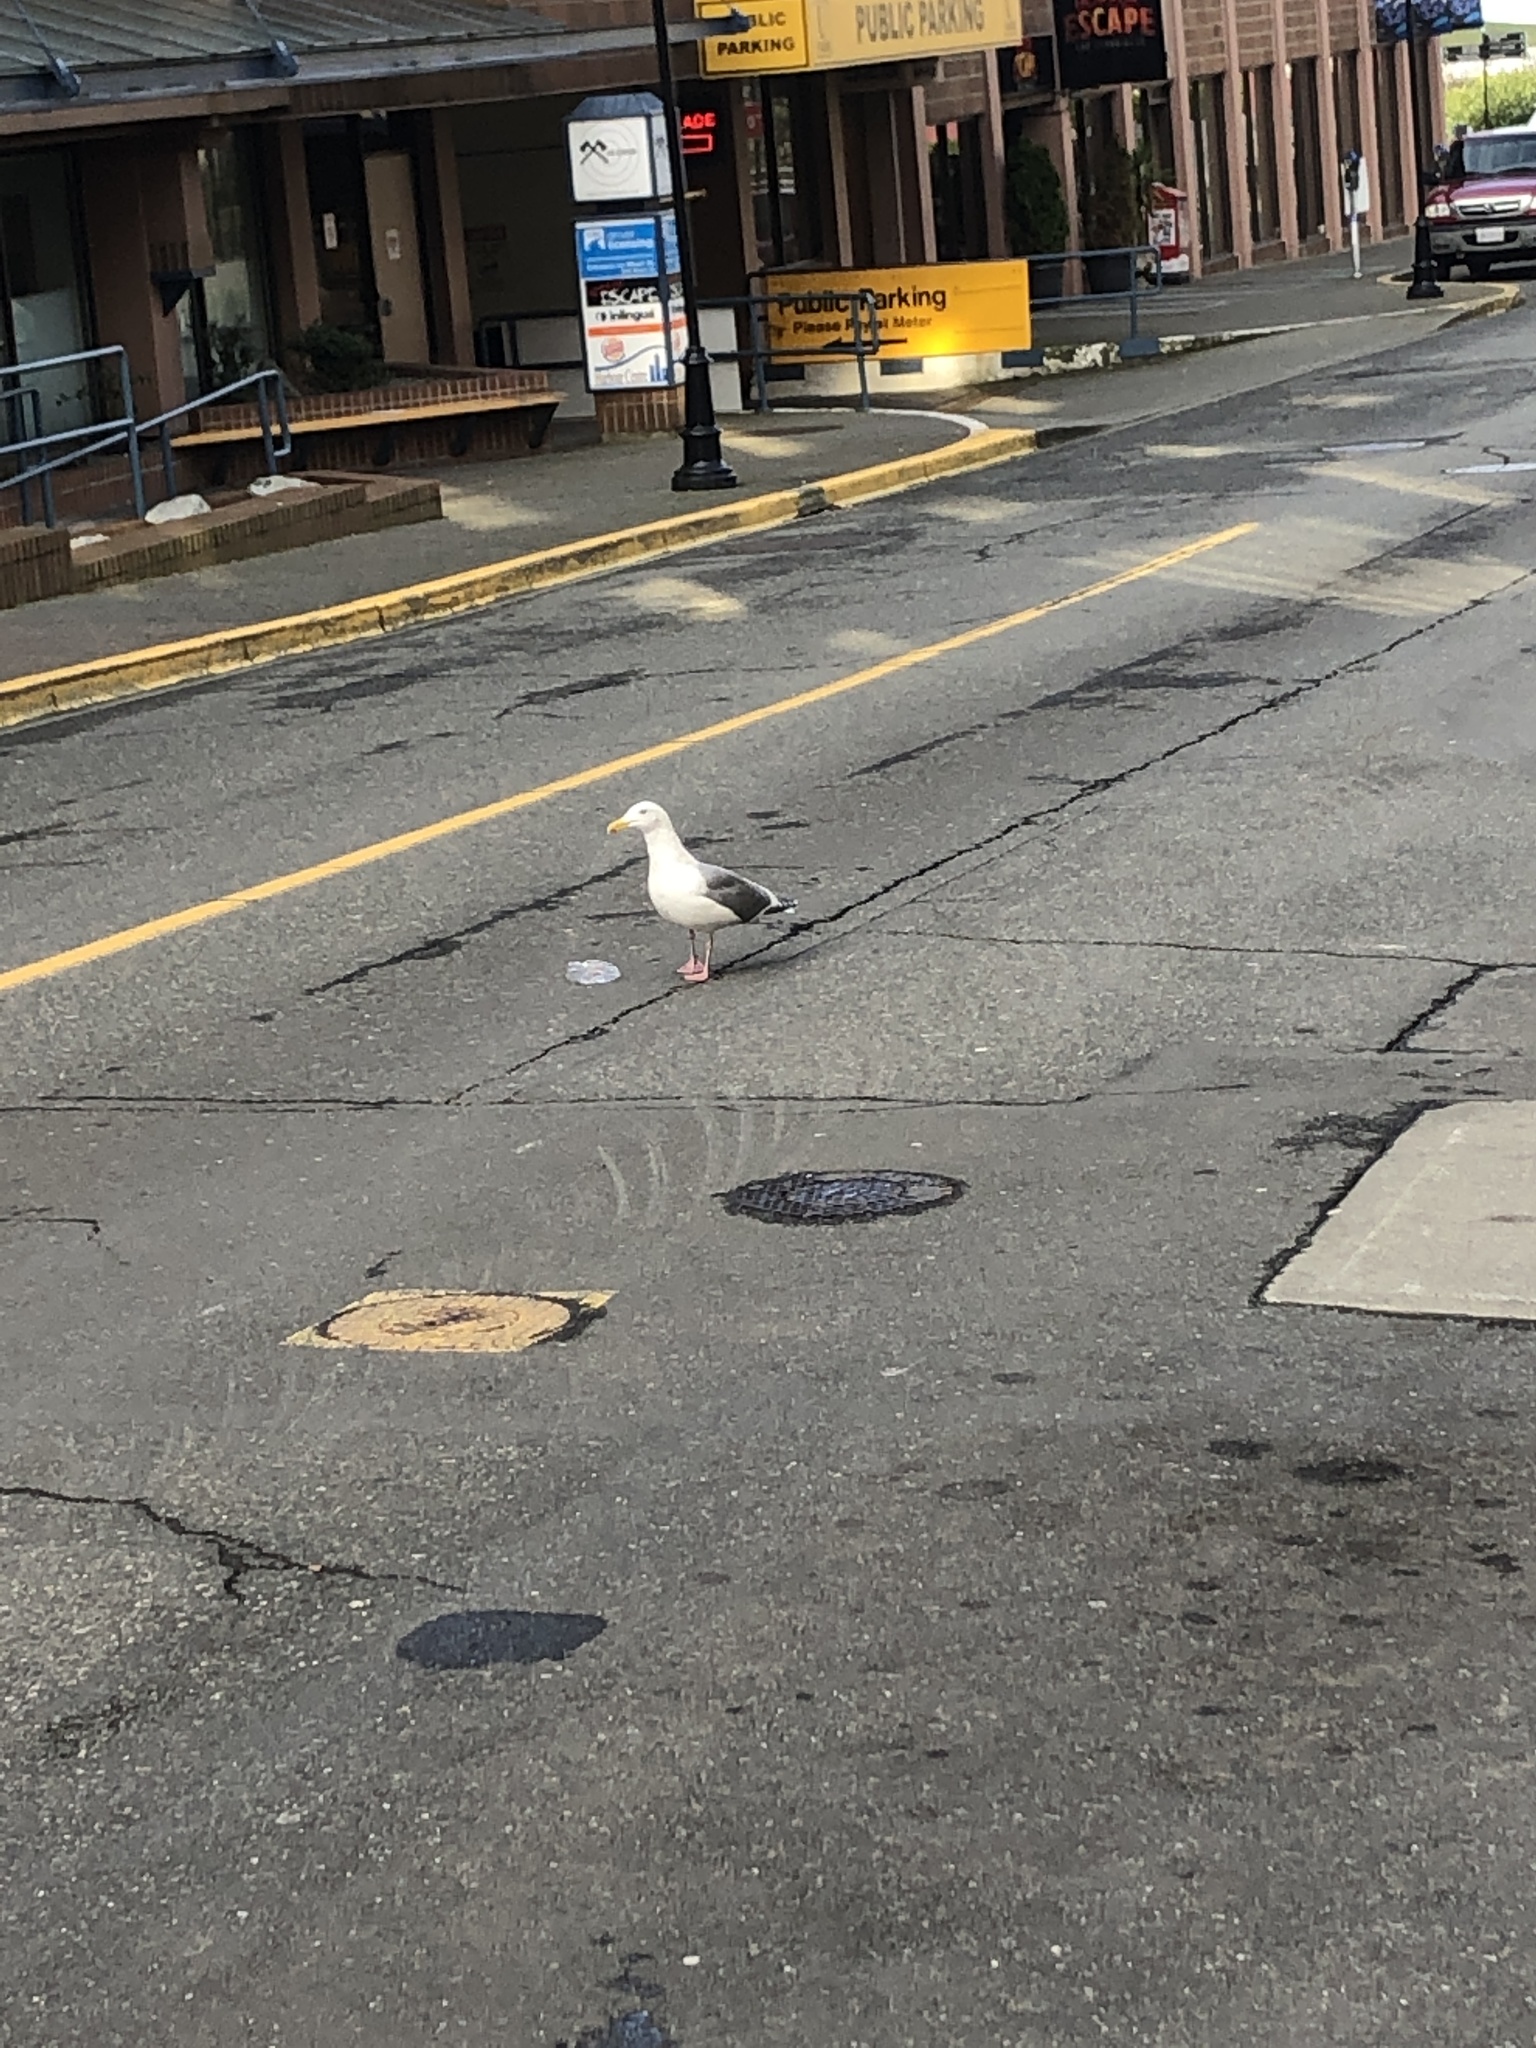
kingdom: Animalia
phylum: Chordata
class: Aves
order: Charadriiformes
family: Laridae
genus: Larus
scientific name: Larus
